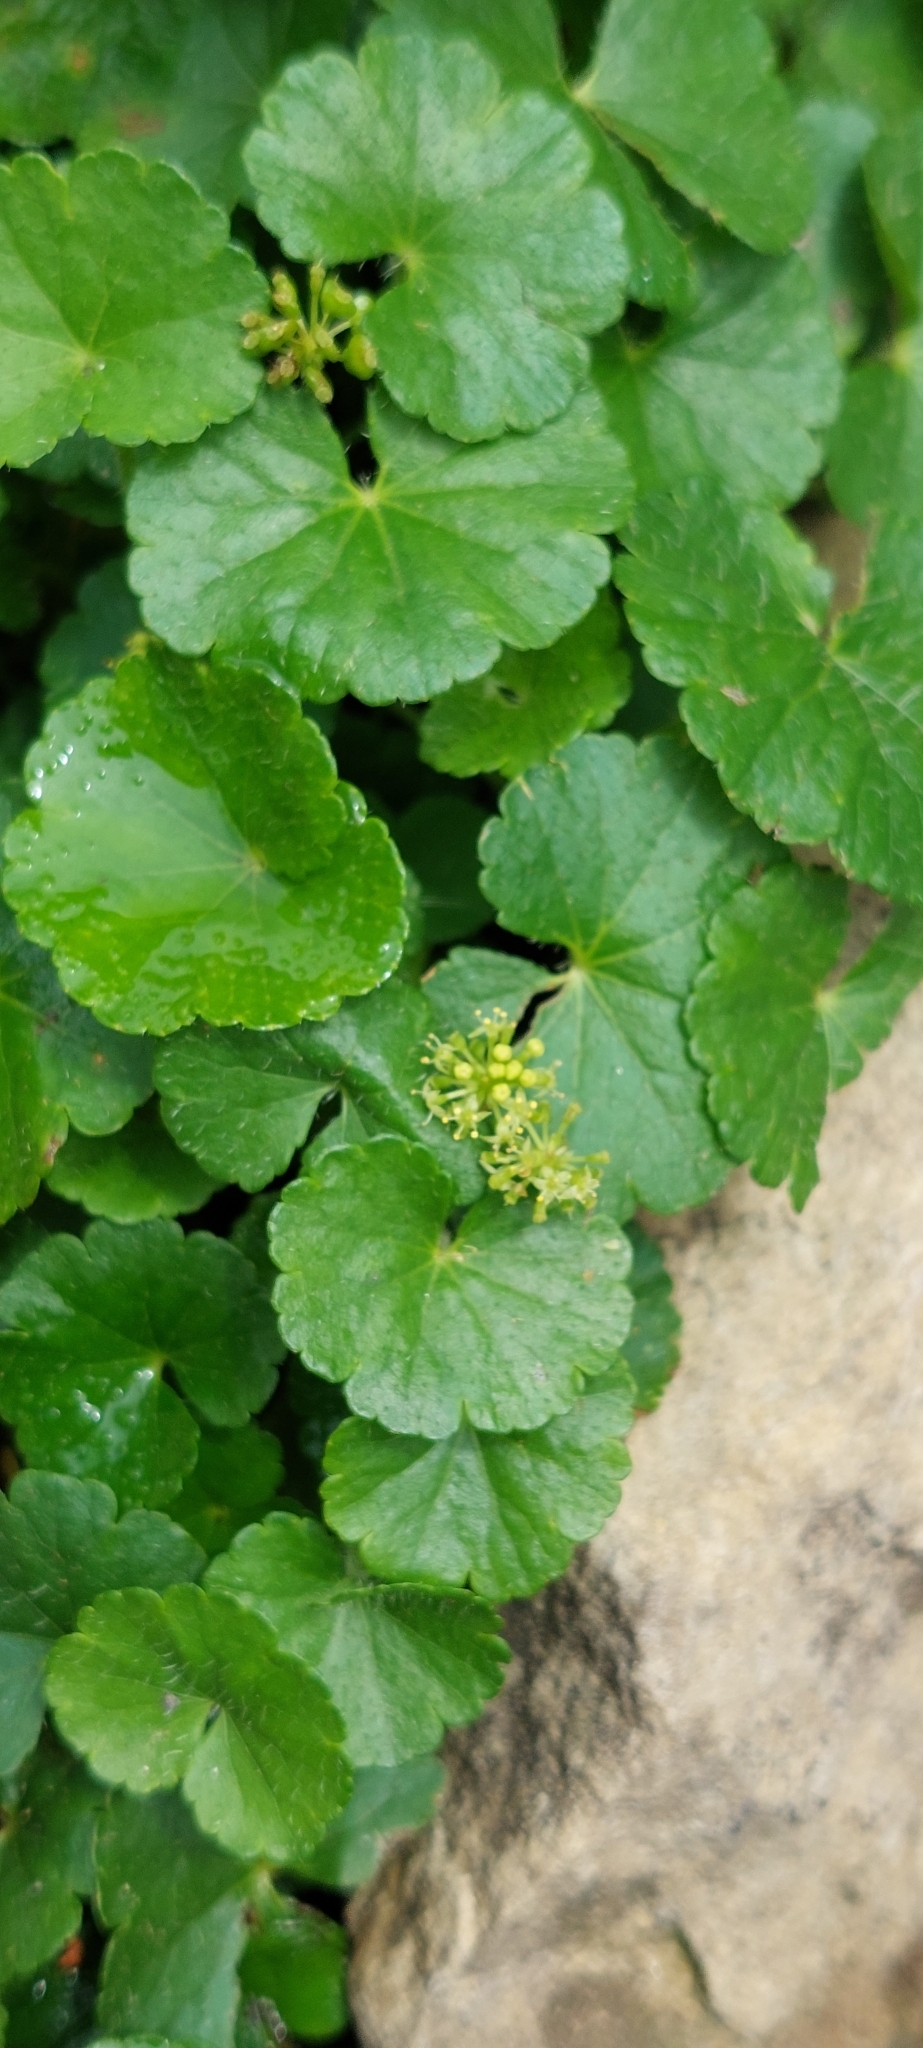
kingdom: Plantae
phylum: Tracheophyta
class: Magnoliopsida
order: Apiales
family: Araliaceae
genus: Hydrocotyle
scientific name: Hydrocotyle bonplandii
